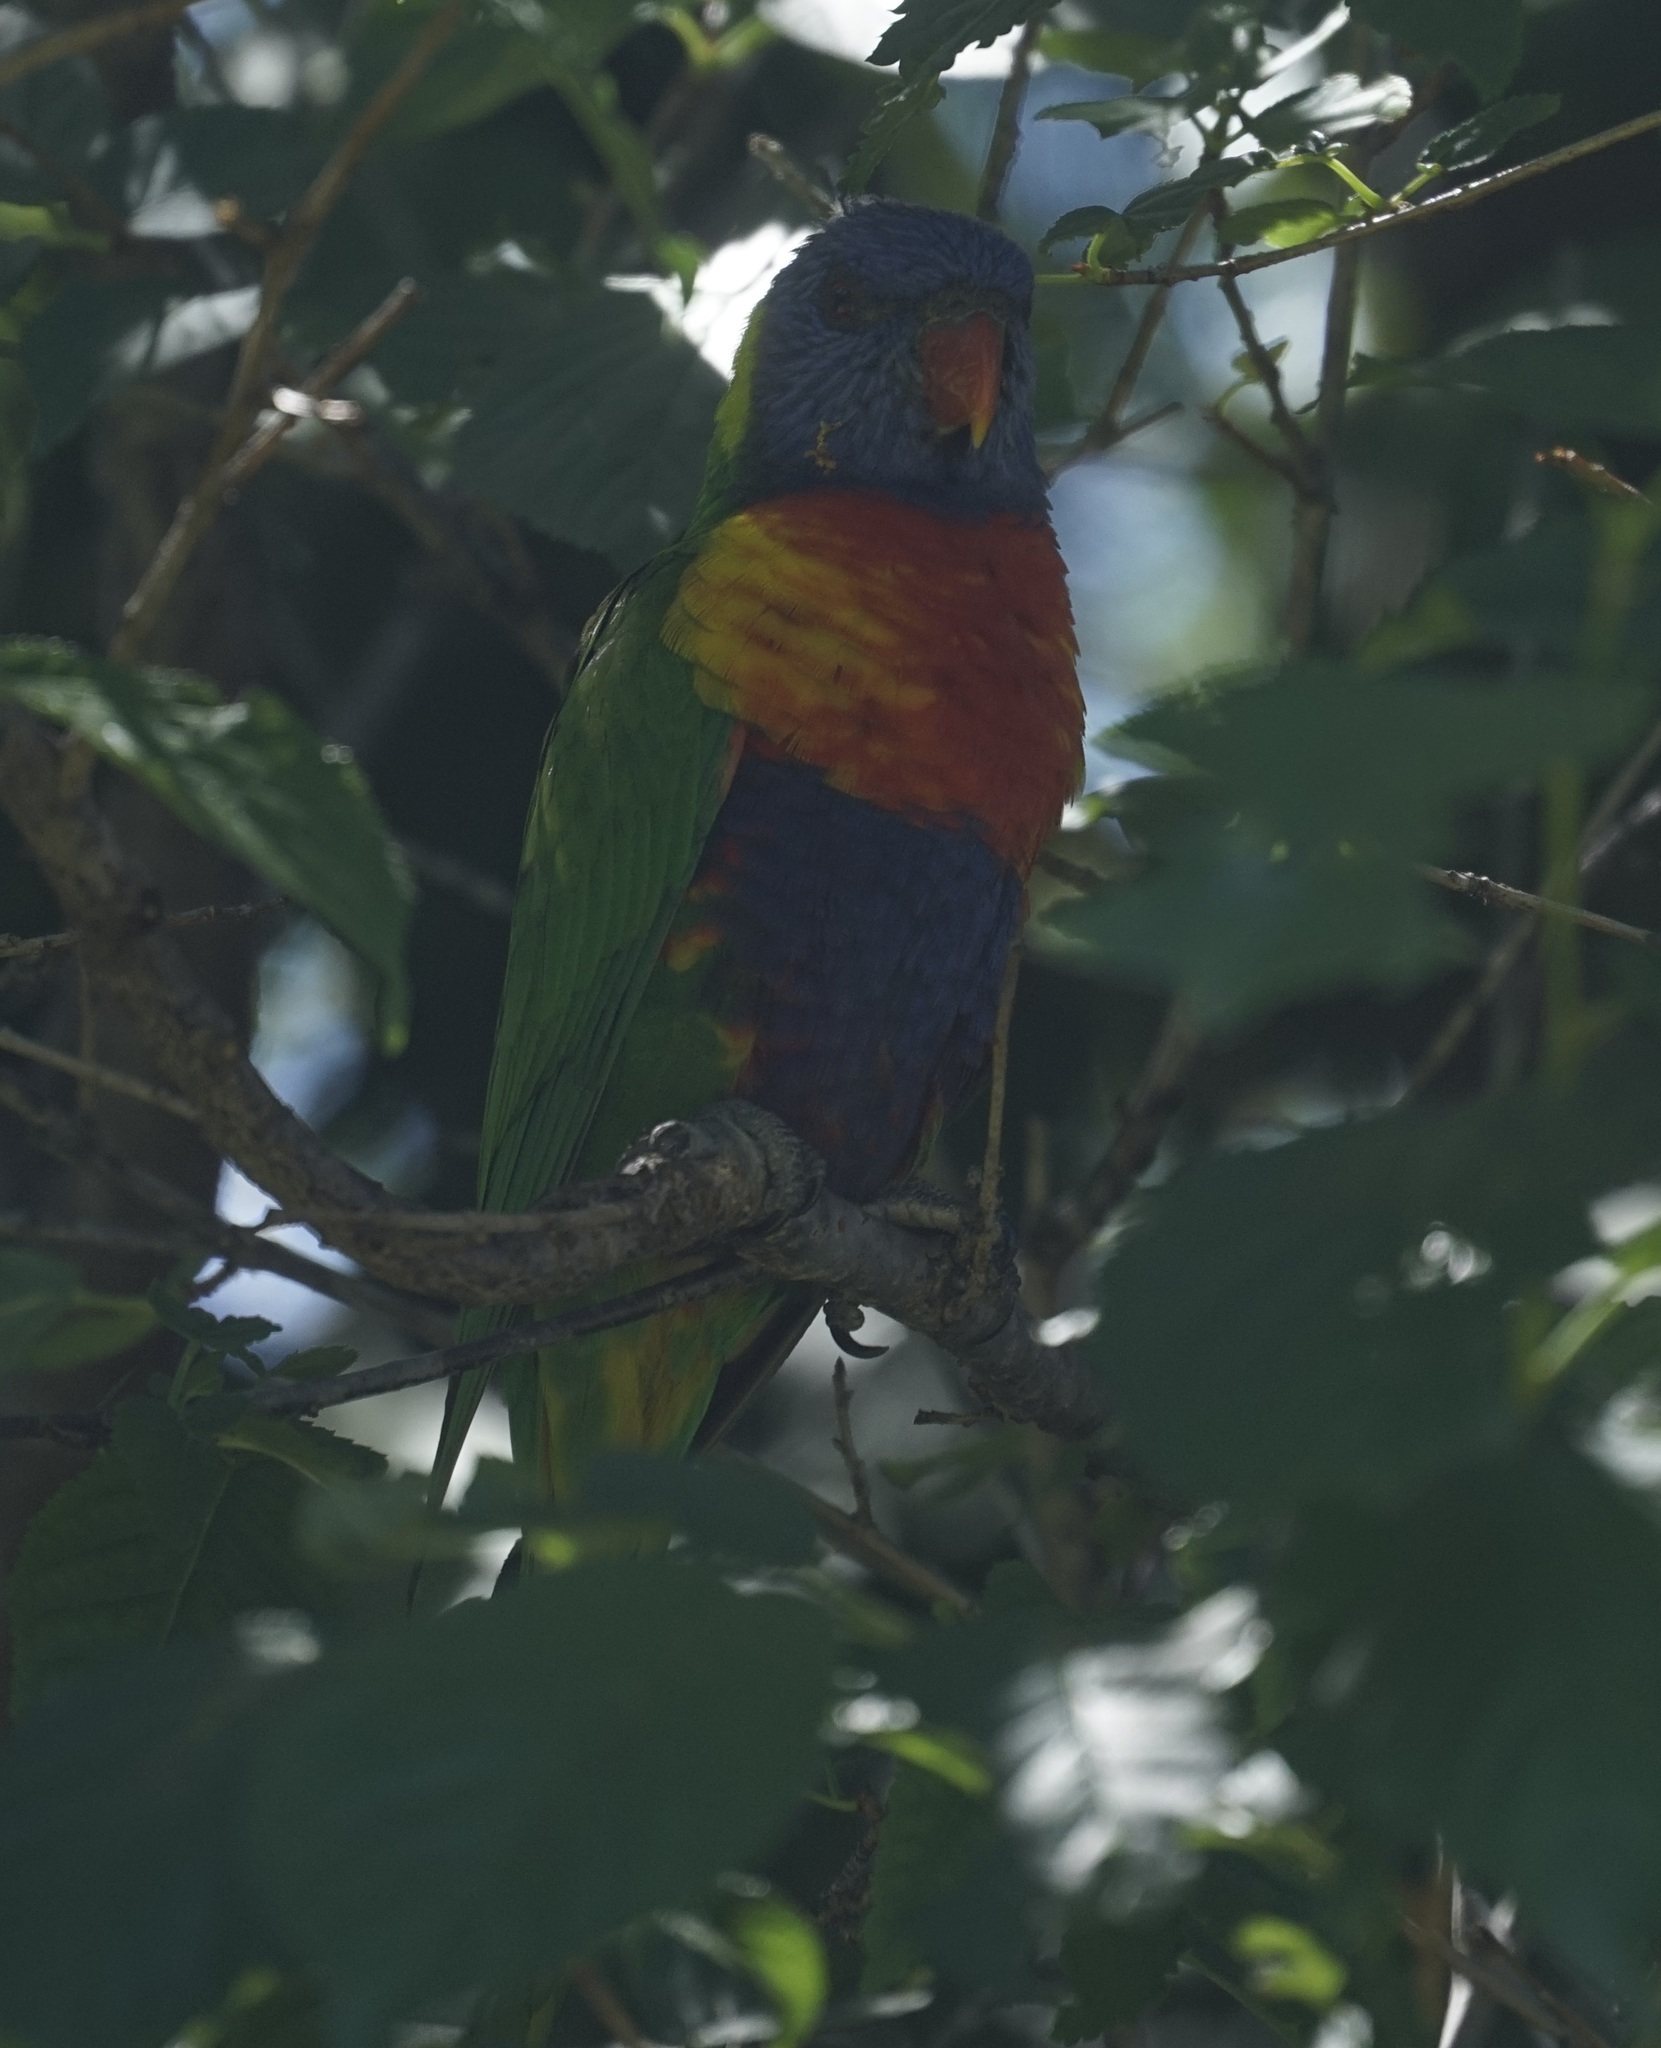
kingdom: Animalia
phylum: Chordata
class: Aves
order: Psittaciformes
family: Psittacidae
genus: Trichoglossus
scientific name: Trichoglossus haematodus
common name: Coconut lorikeet
